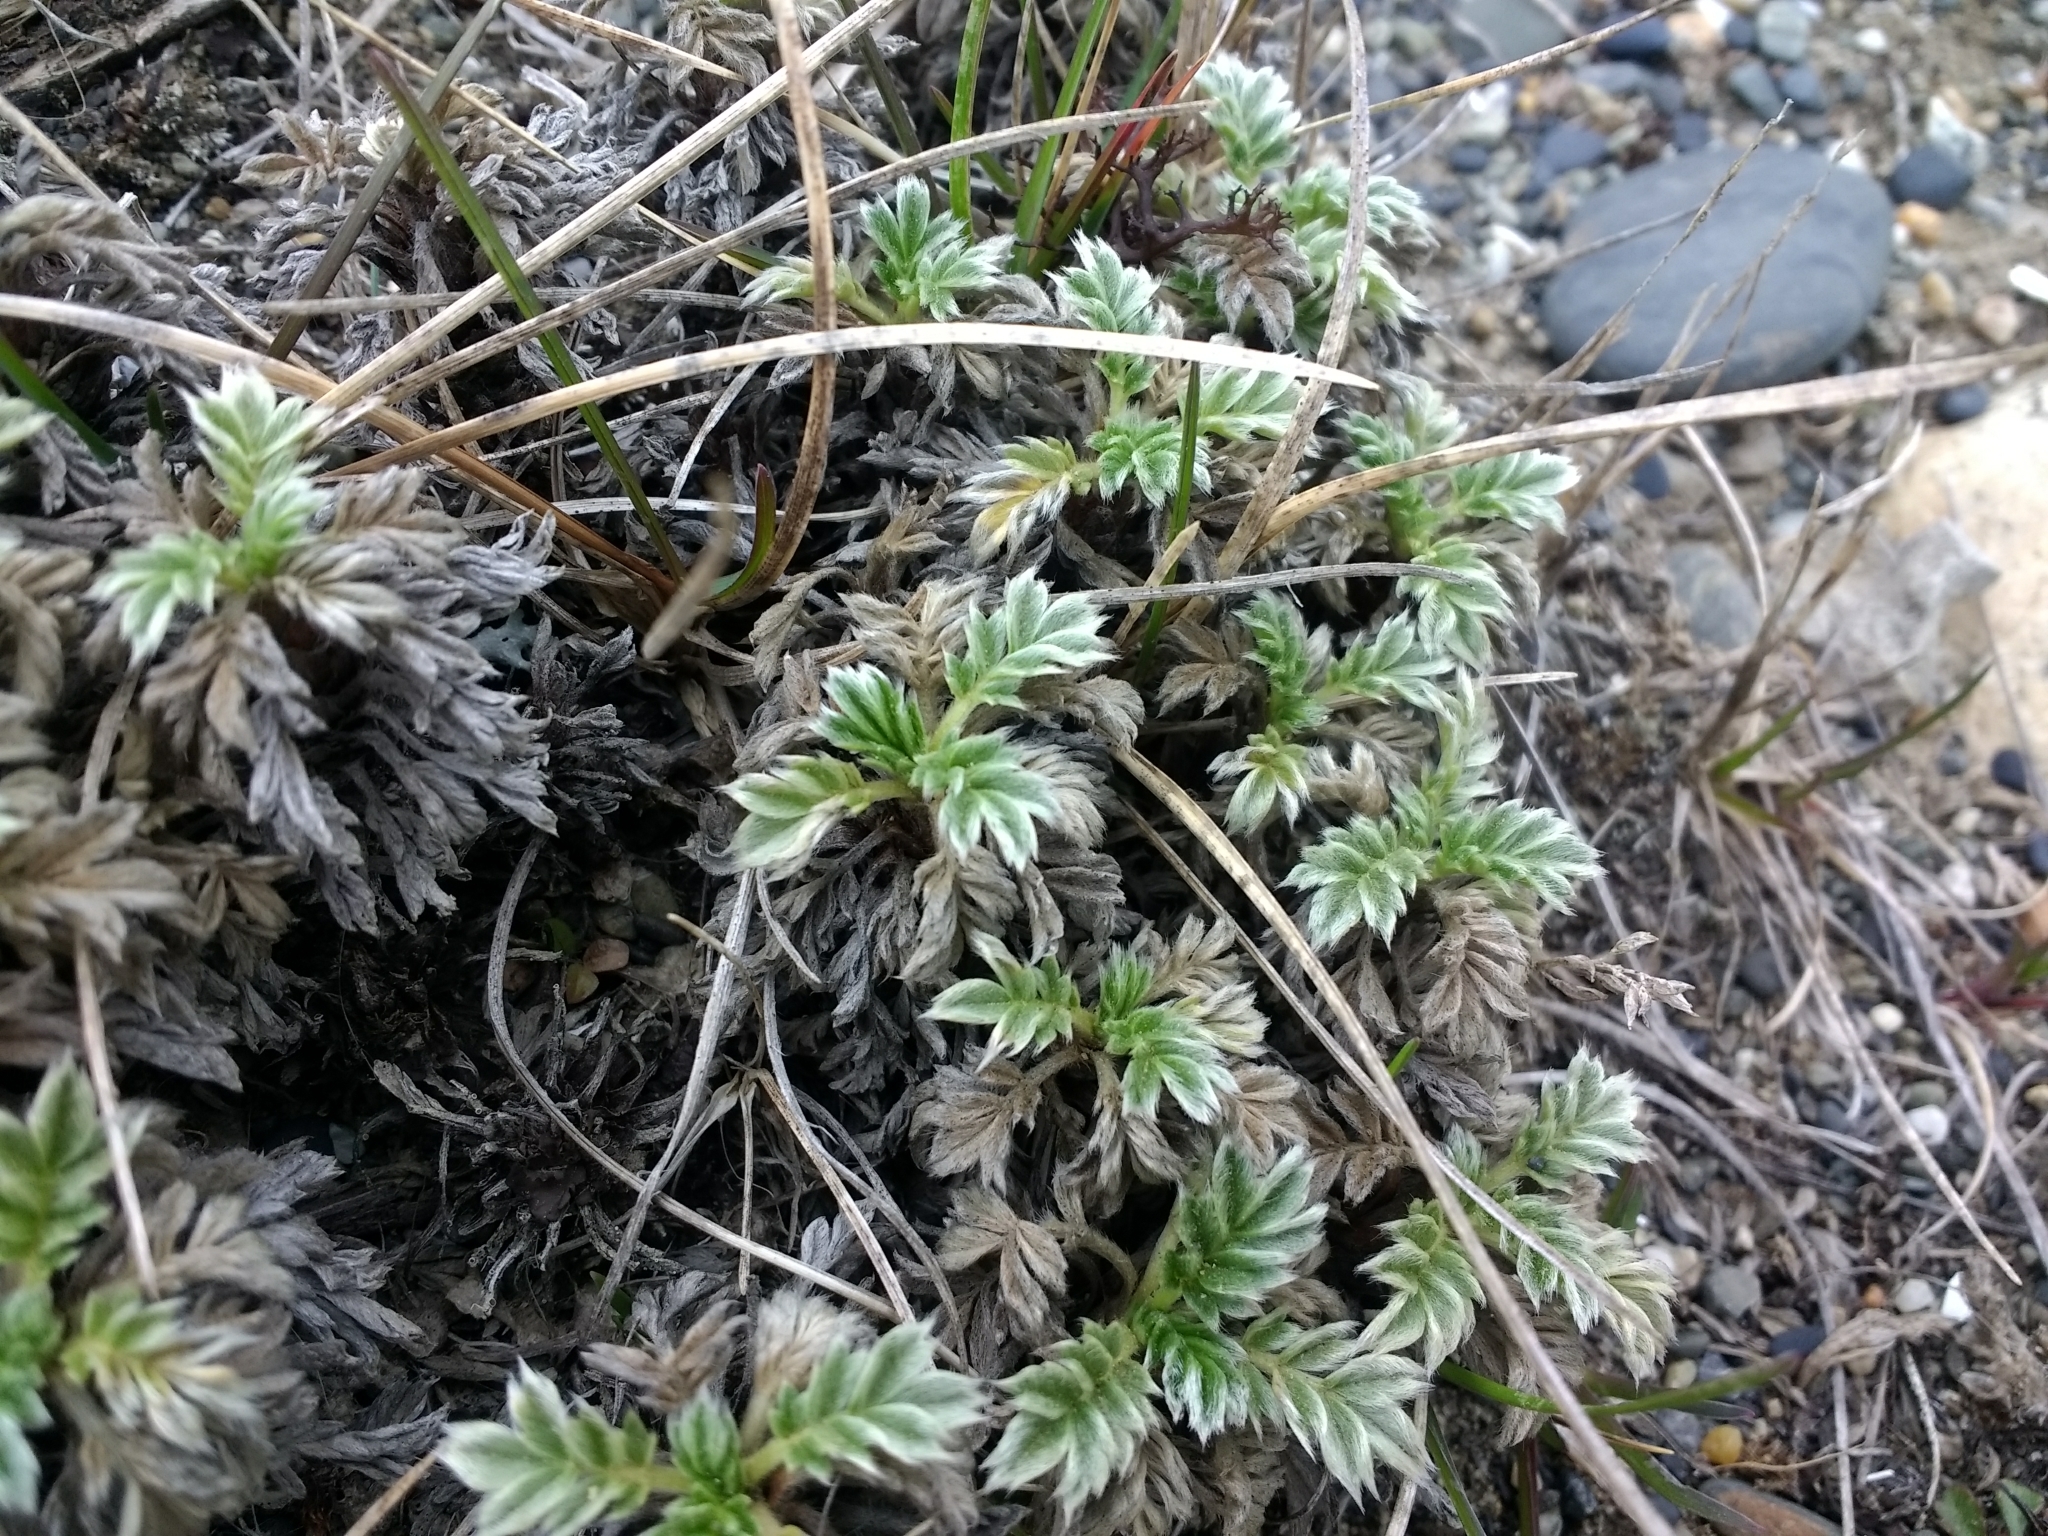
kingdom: Plantae
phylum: Tracheophyta
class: Magnoliopsida
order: Rosales
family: Rosaceae
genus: Acaena
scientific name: Acaena magellanica
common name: New zealand burr
